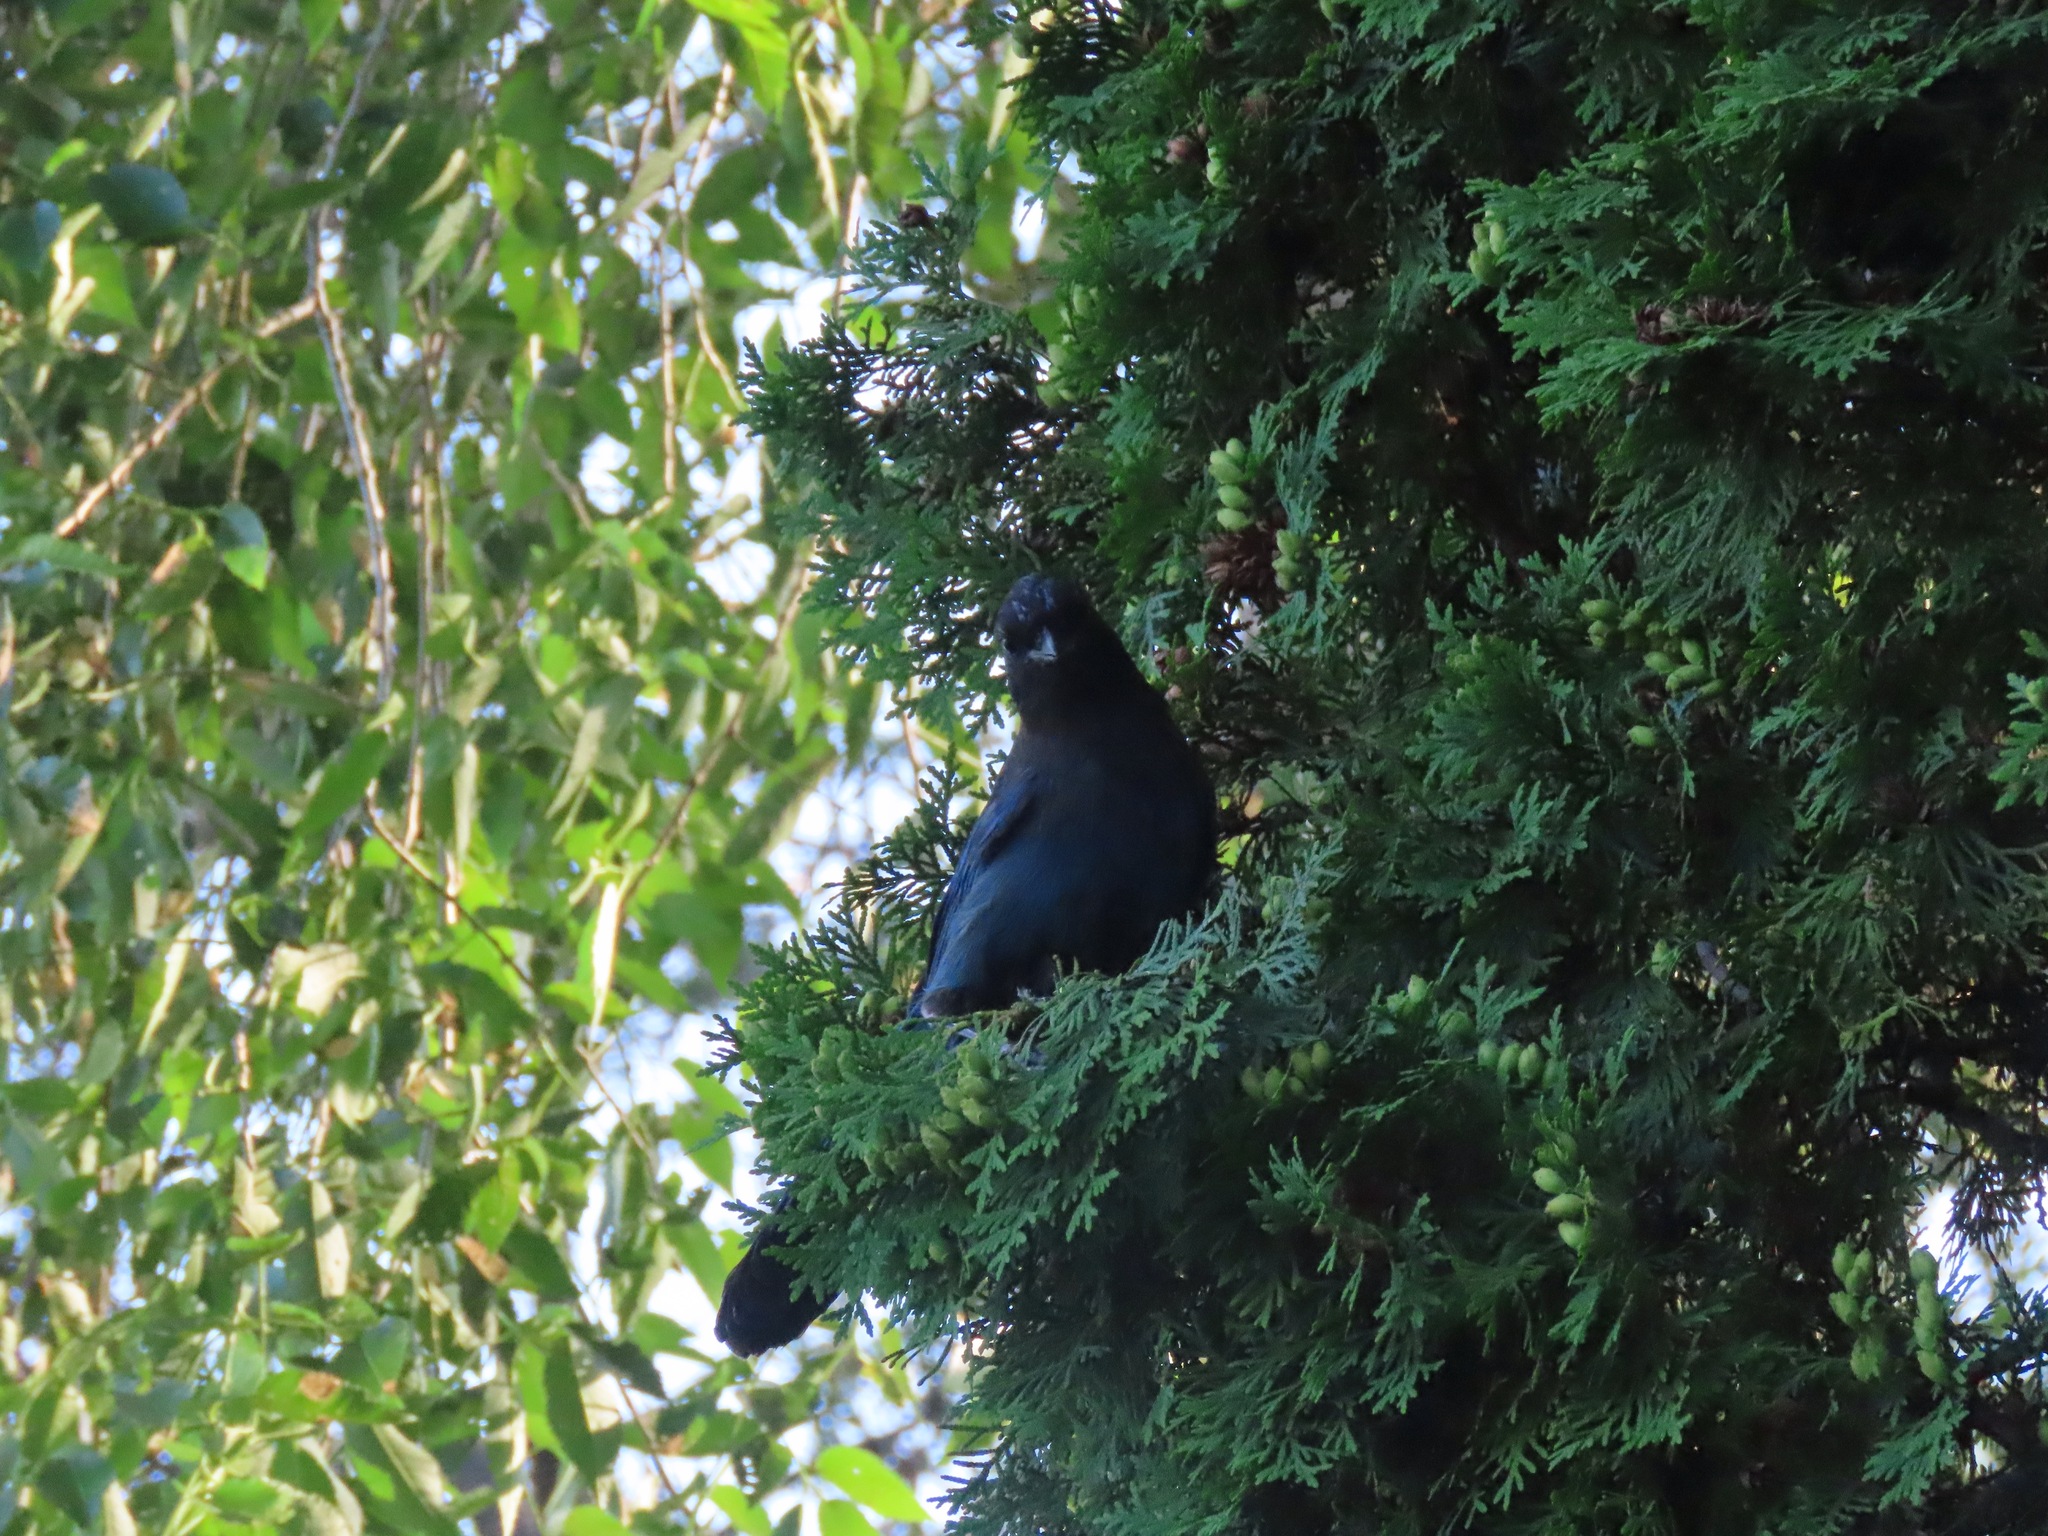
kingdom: Animalia
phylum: Chordata
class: Aves
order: Passeriformes
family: Corvidae
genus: Cyanocitta
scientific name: Cyanocitta stelleri
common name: Steller's jay
